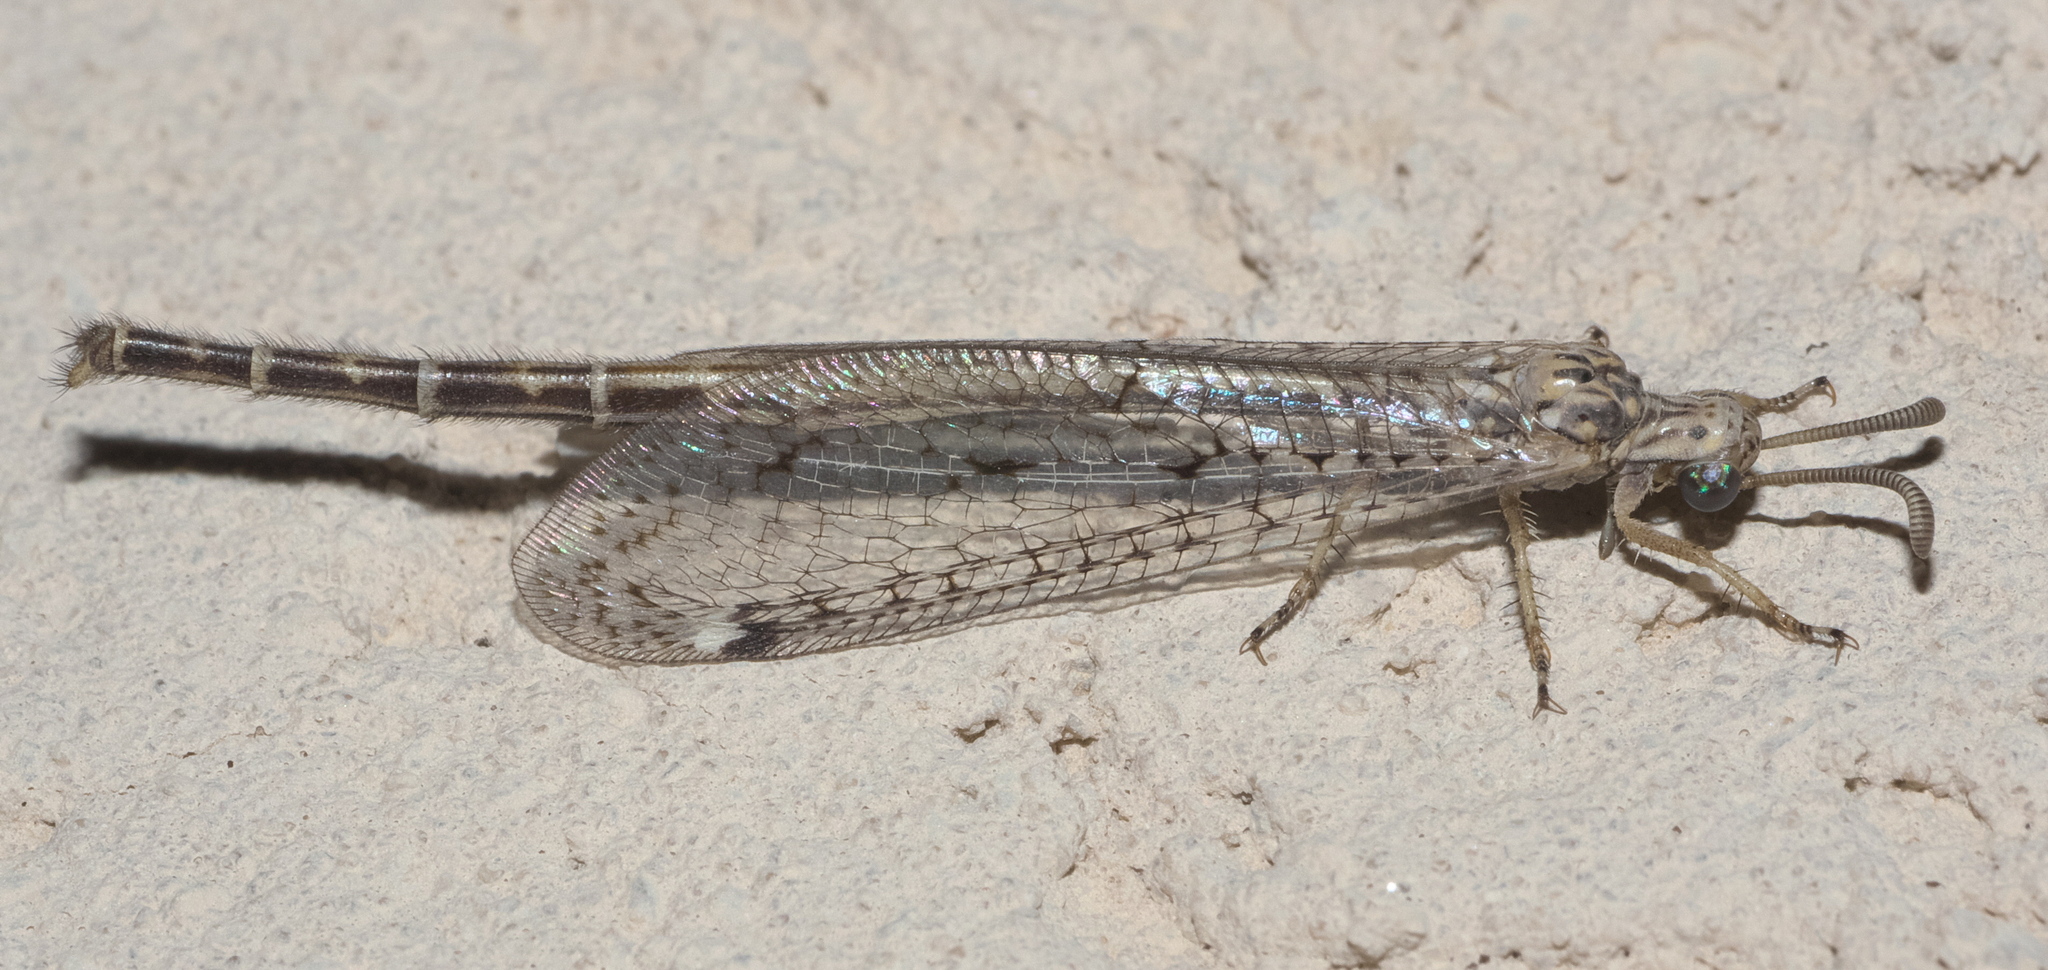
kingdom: Animalia
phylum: Arthropoda
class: Insecta
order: Neuroptera
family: Myrmeleontidae
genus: Scotoleon
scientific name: Scotoleon longipalpis
